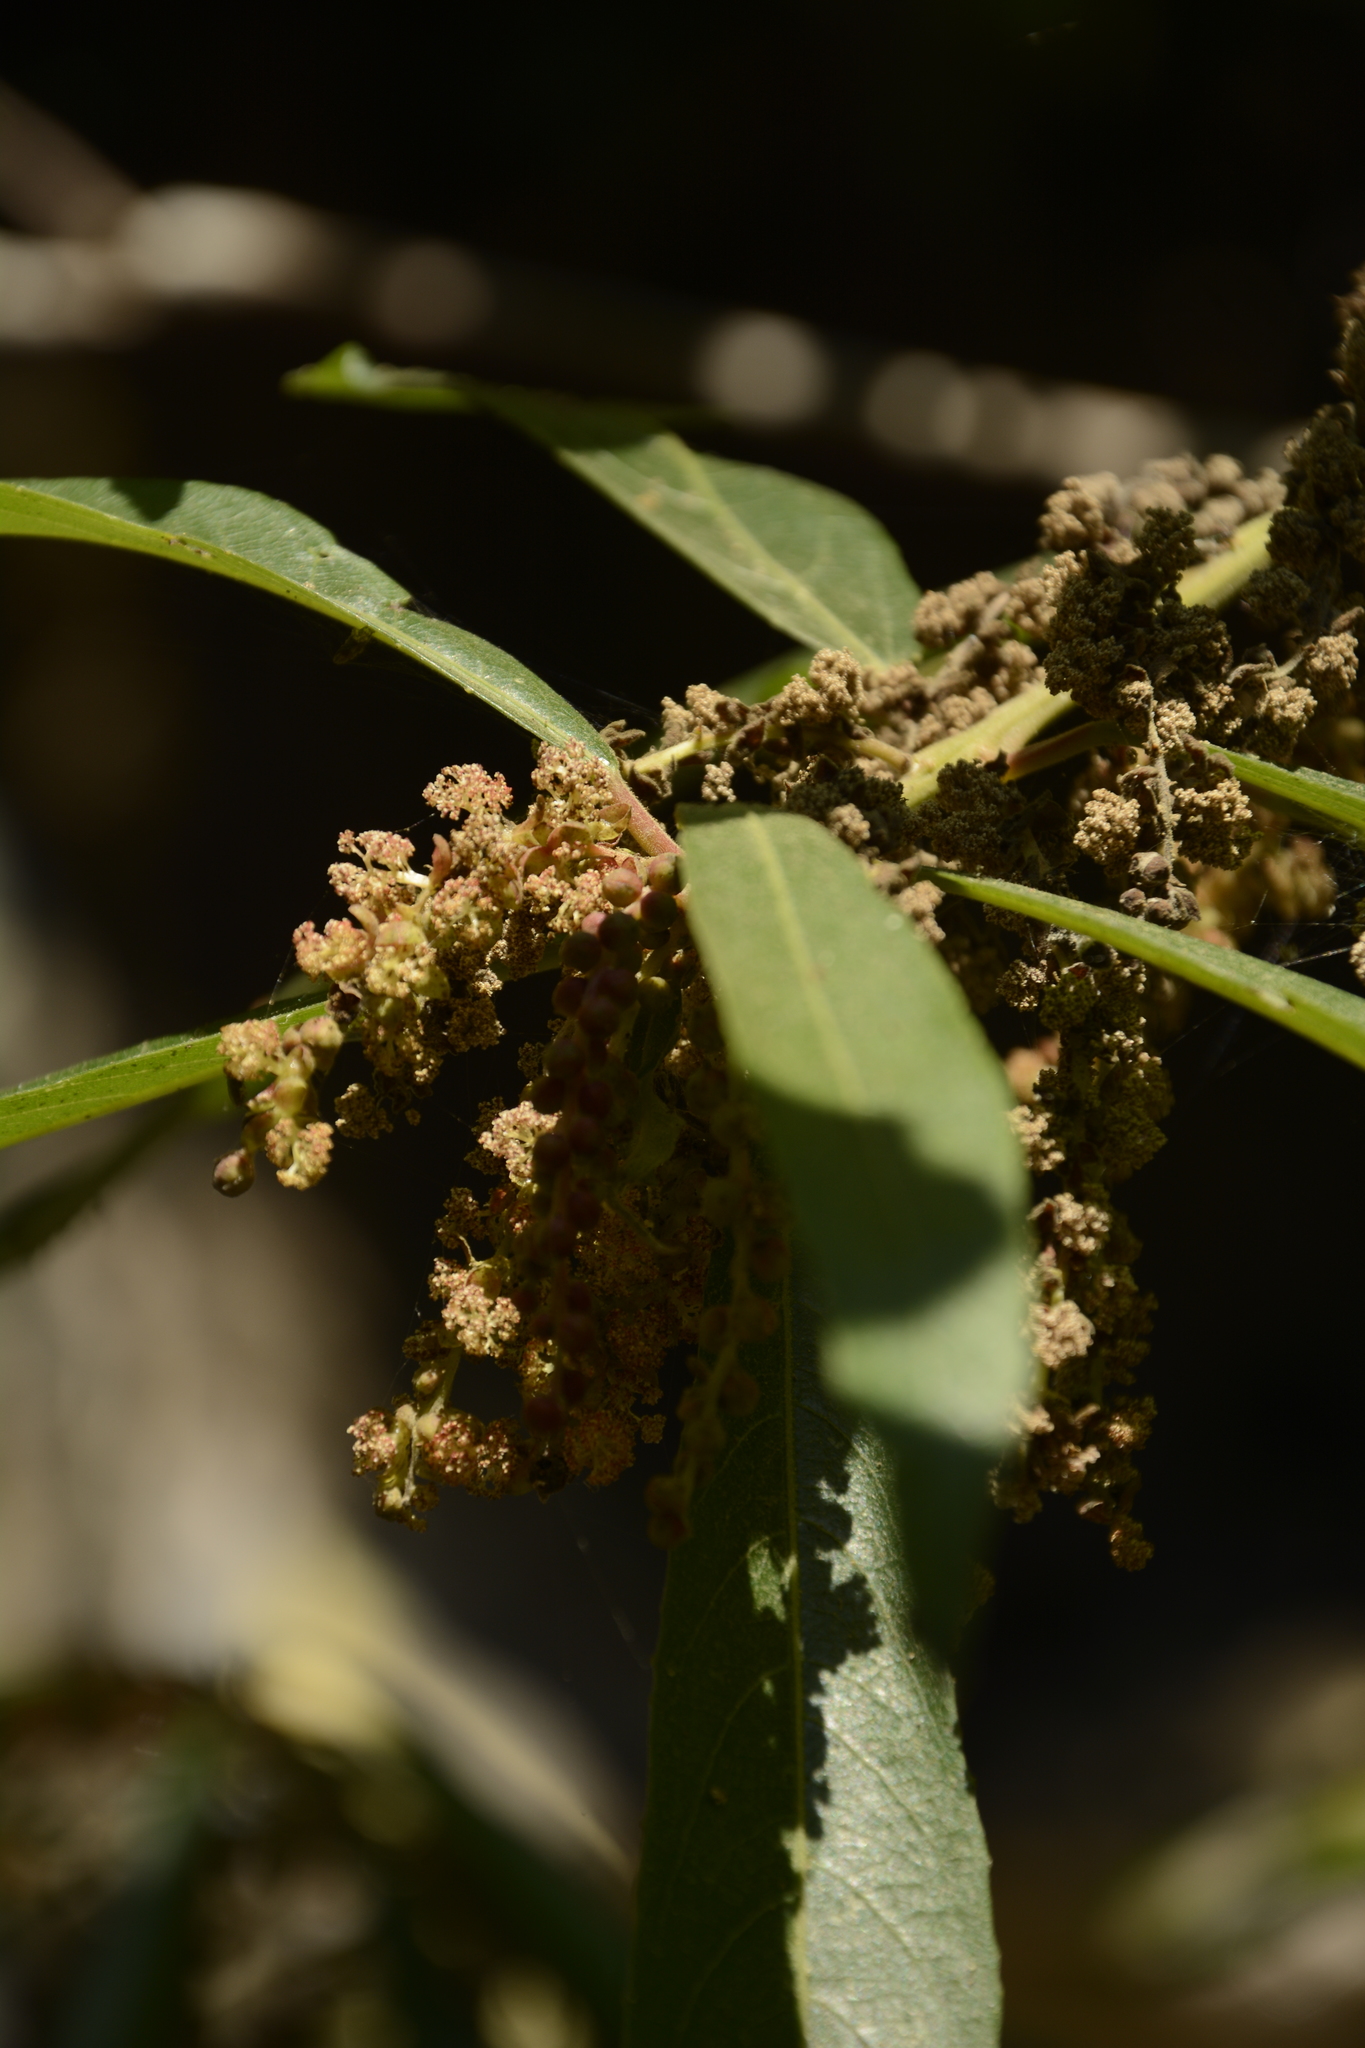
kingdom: Plantae
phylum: Tracheophyta
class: Magnoliopsida
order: Malpighiales
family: Euphorbiaceae
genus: Homonoia
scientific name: Homonoia riparia
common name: Willow-leaved water croton
